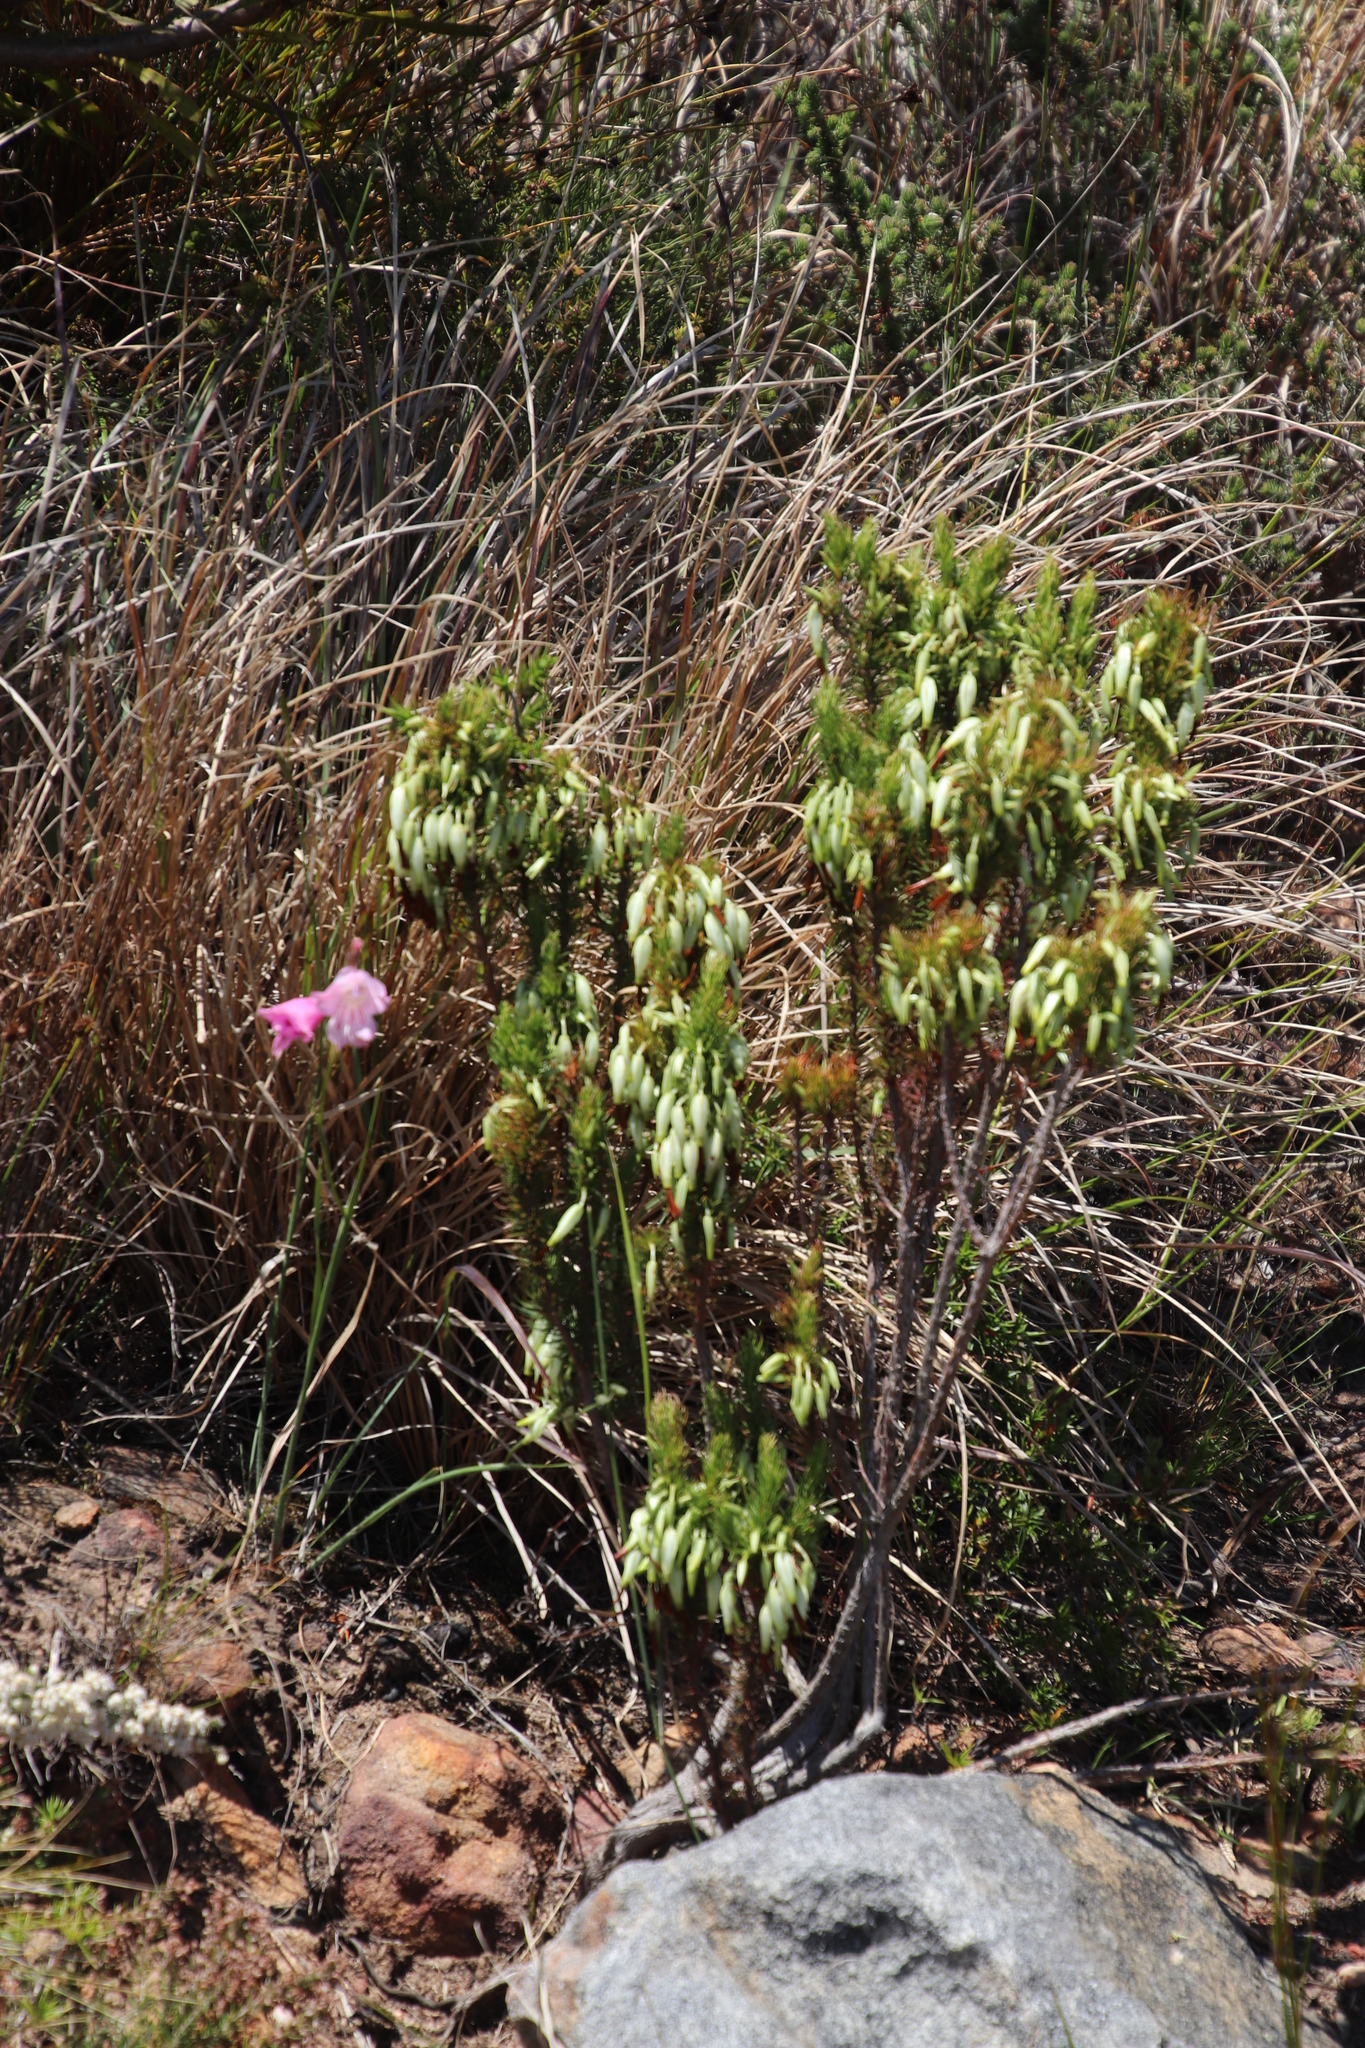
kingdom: Plantae
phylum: Tracheophyta
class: Magnoliopsida
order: Ericales
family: Ericaceae
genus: Erica
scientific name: Erica plukenetii
